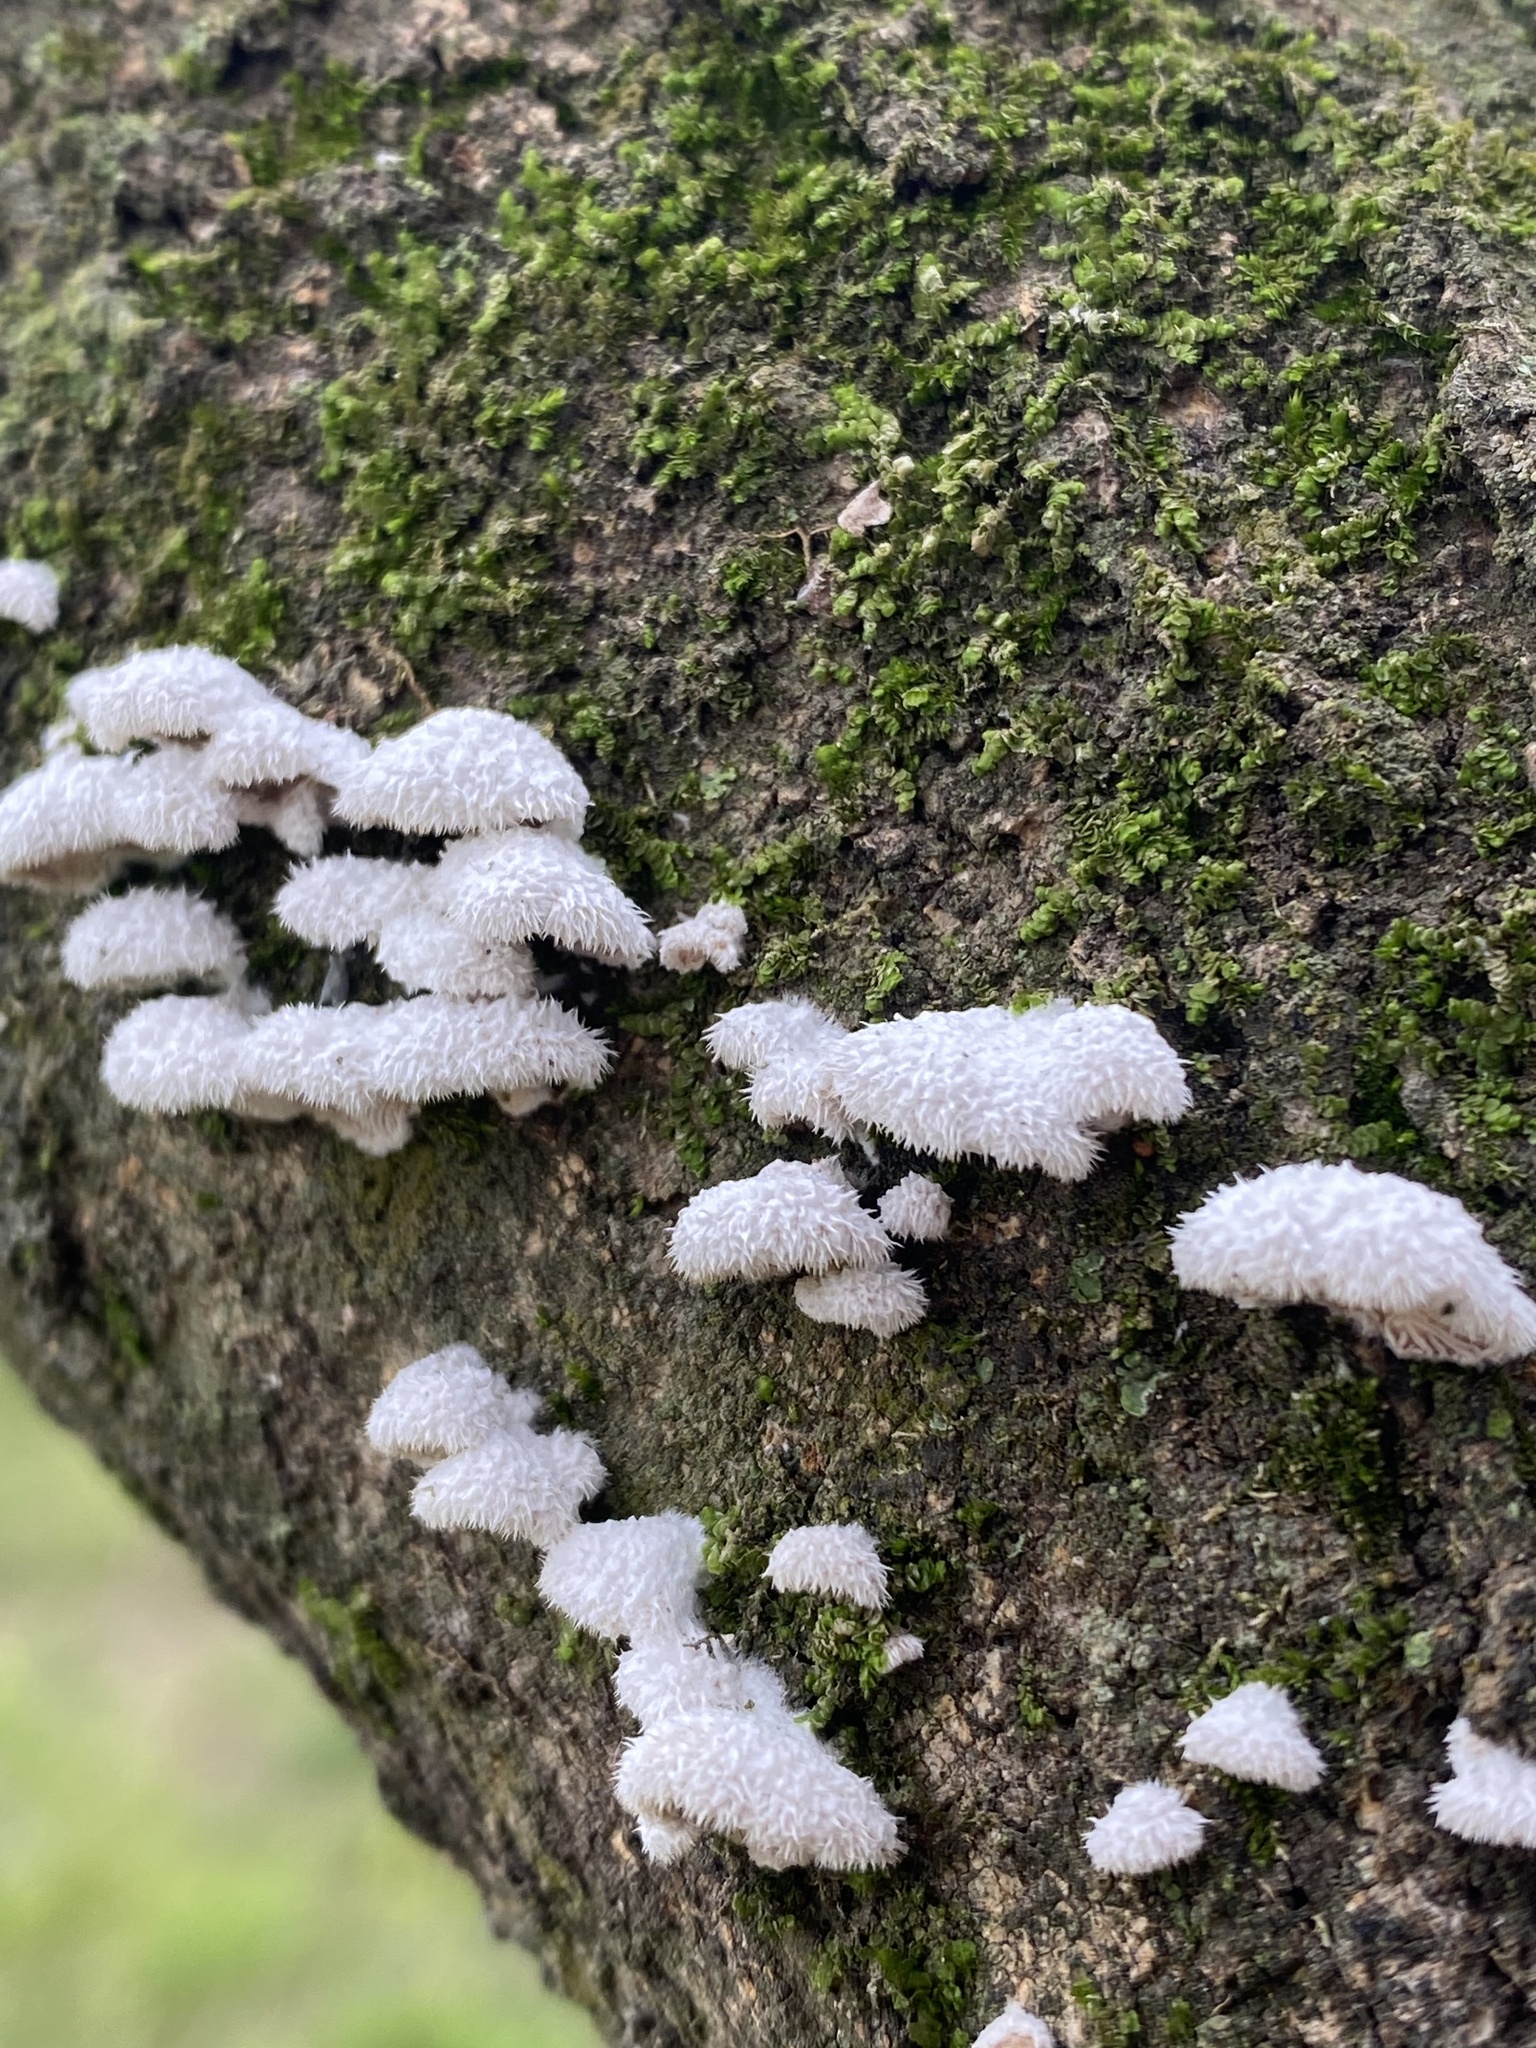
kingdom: Fungi
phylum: Basidiomycota
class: Agaricomycetes
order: Agaricales
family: Schizophyllaceae
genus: Schizophyllum
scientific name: Schizophyllum commune
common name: Common porecrust
